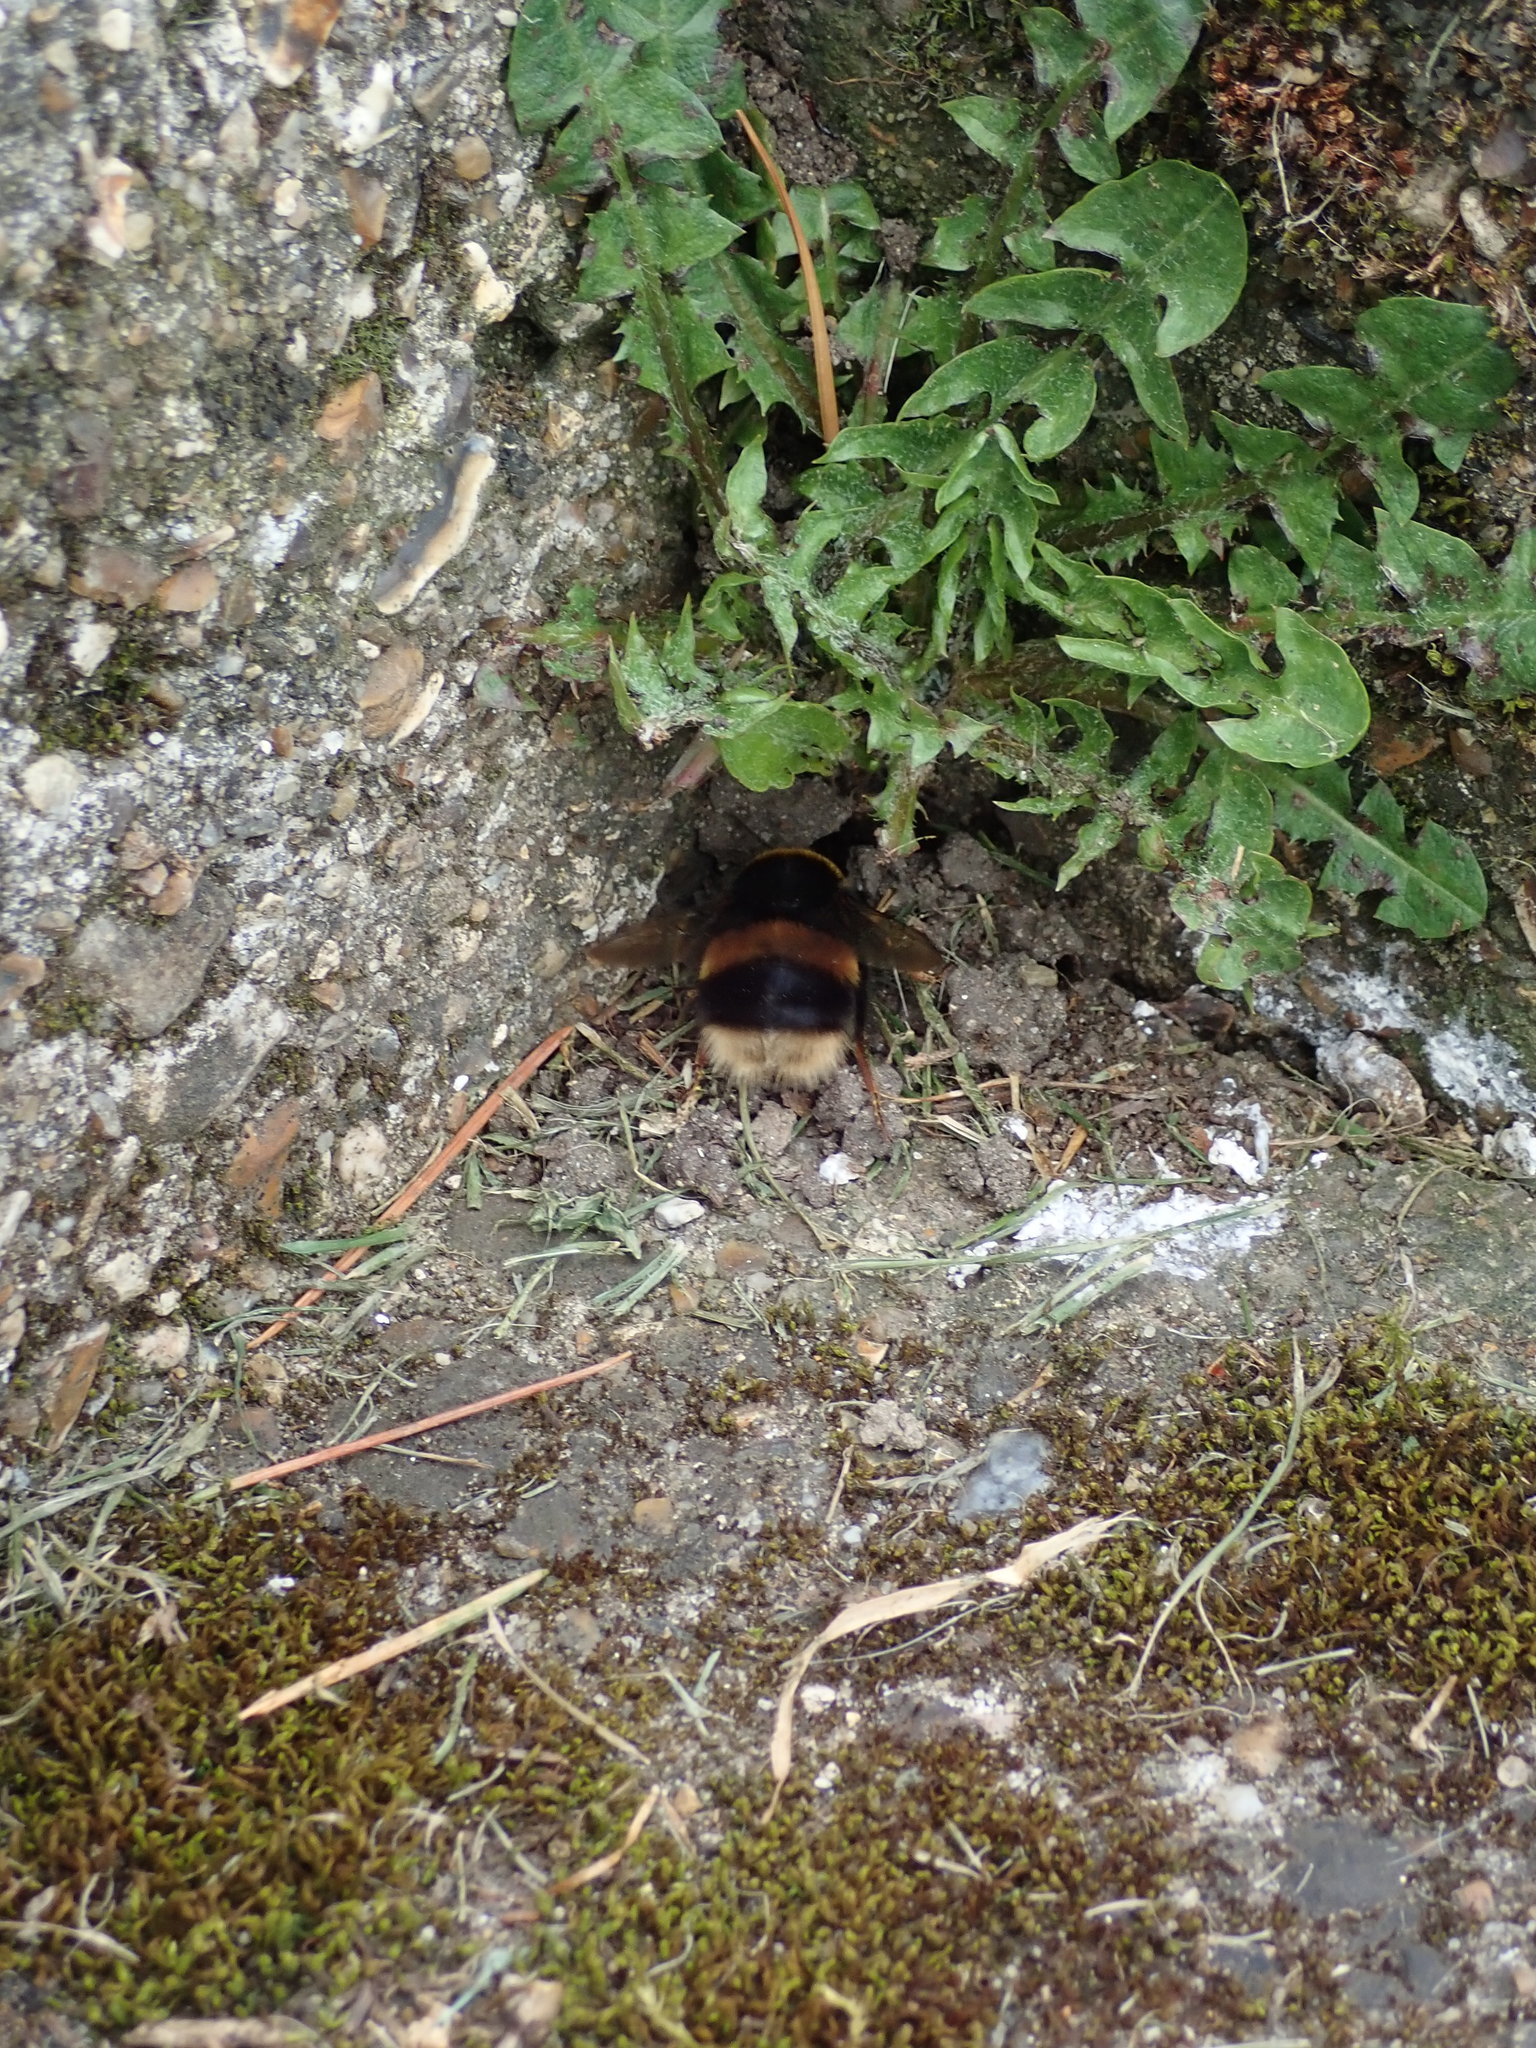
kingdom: Animalia
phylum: Arthropoda
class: Insecta
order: Hymenoptera
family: Apidae
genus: Bombus
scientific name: Bombus terrestris
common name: Buff-tailed bumblebee
